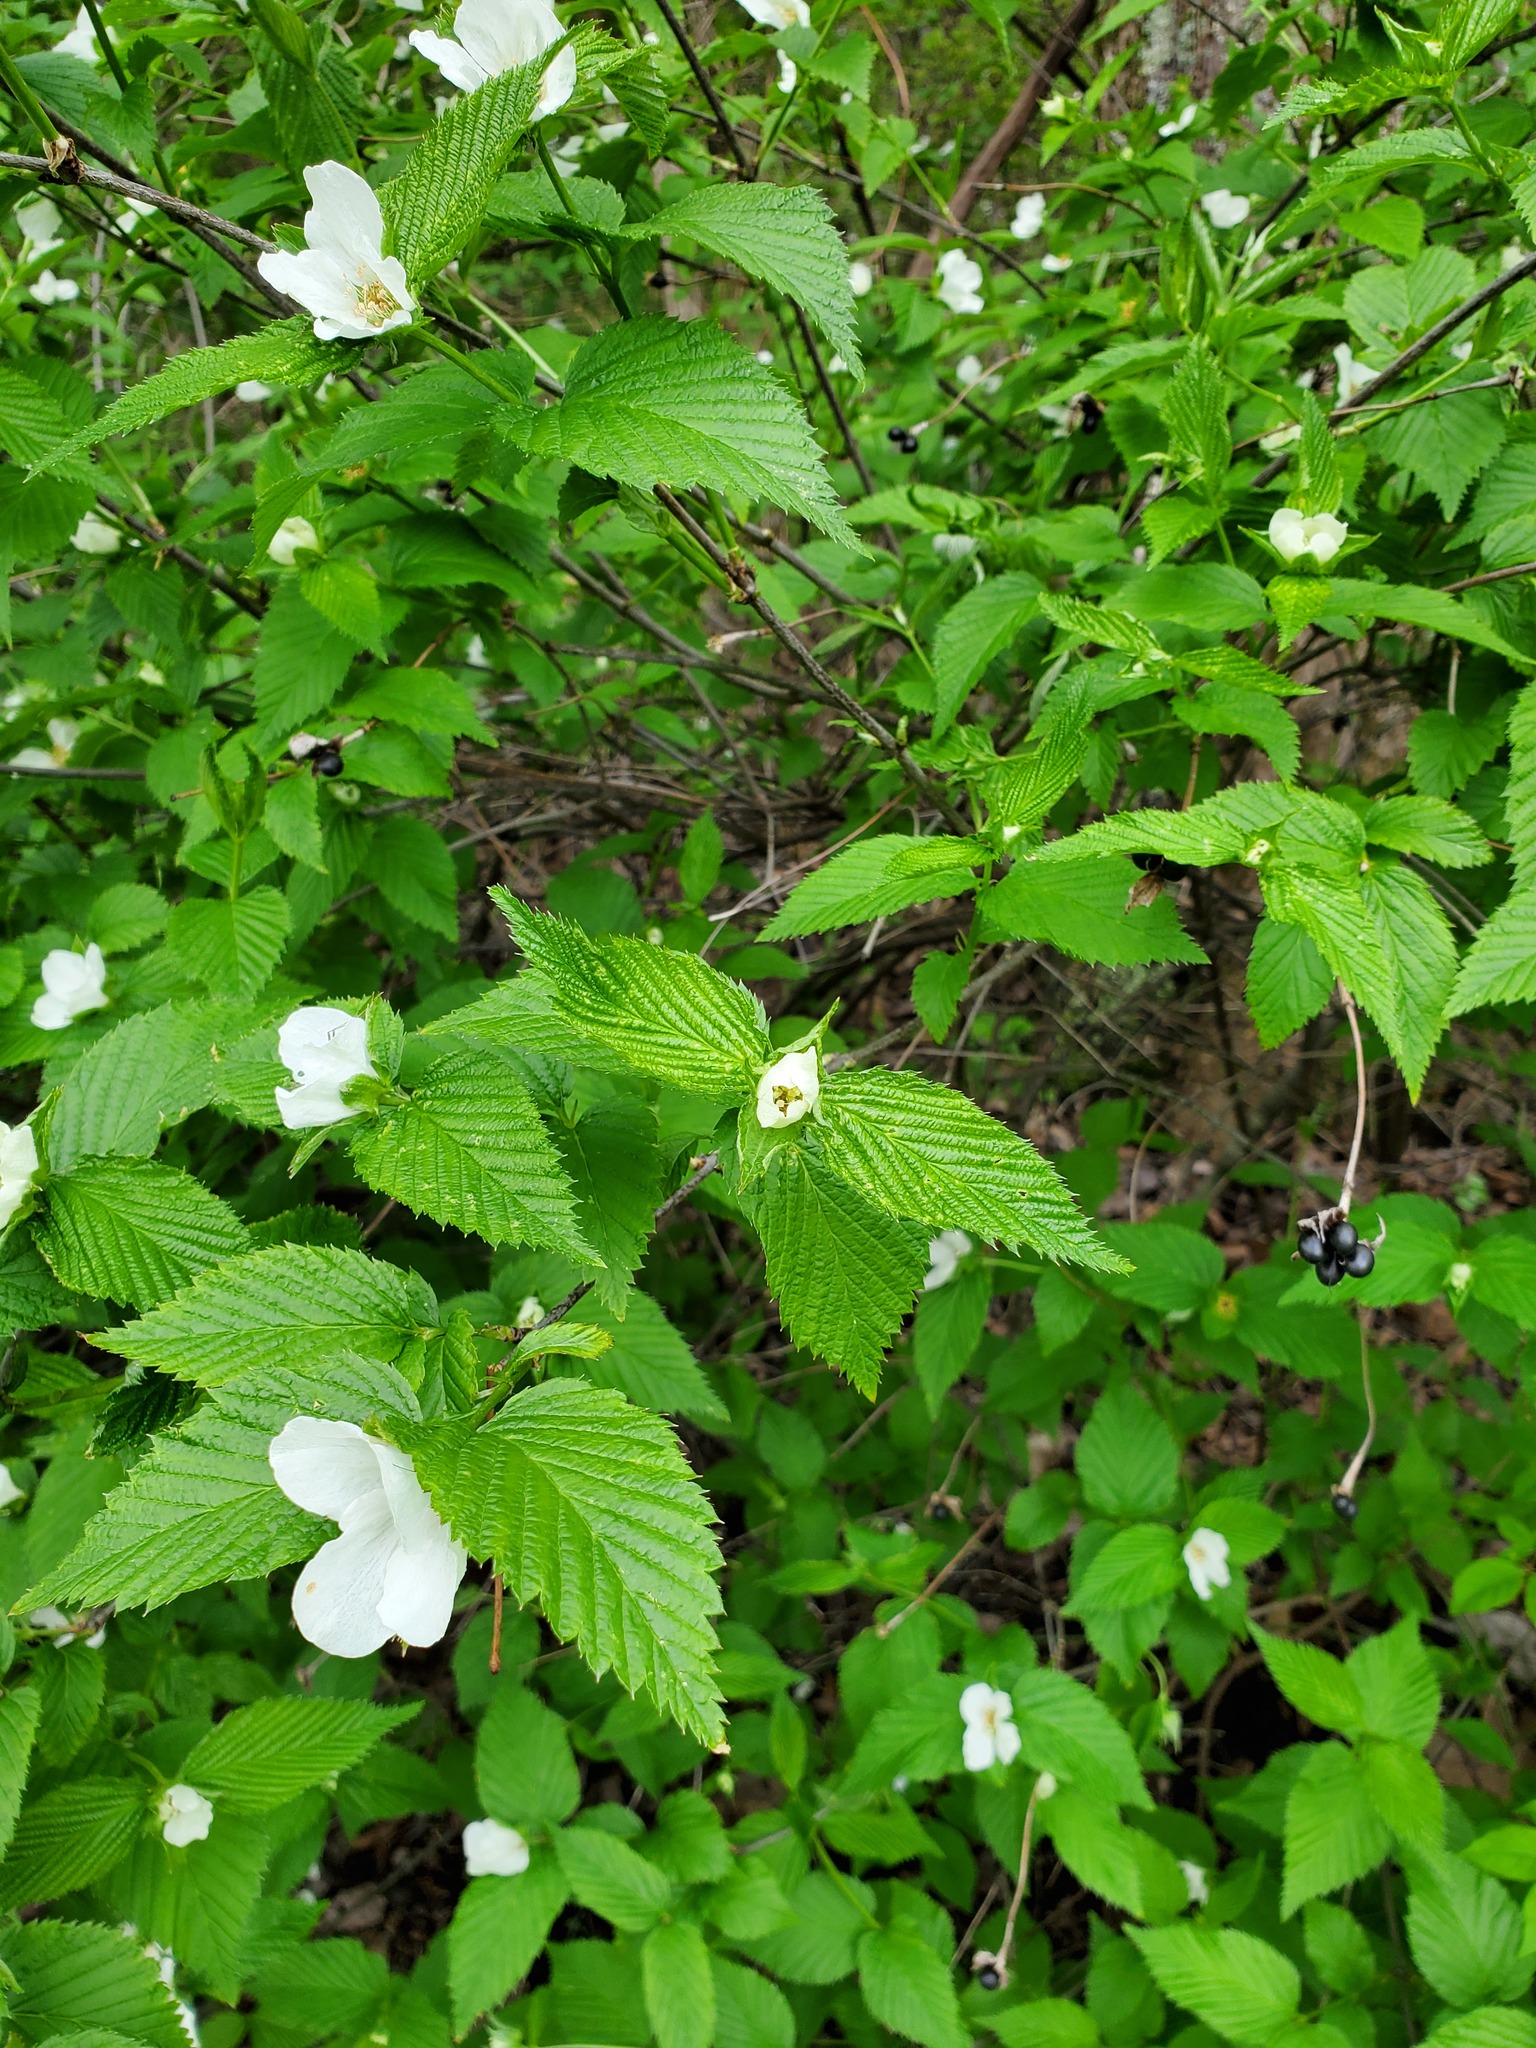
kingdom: Plantae
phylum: Tracheophyta
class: Magnoliopsida
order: Rosales
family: Rosaceae
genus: Rhodotypos
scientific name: Rhodotypos scandens
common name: Jetbead
